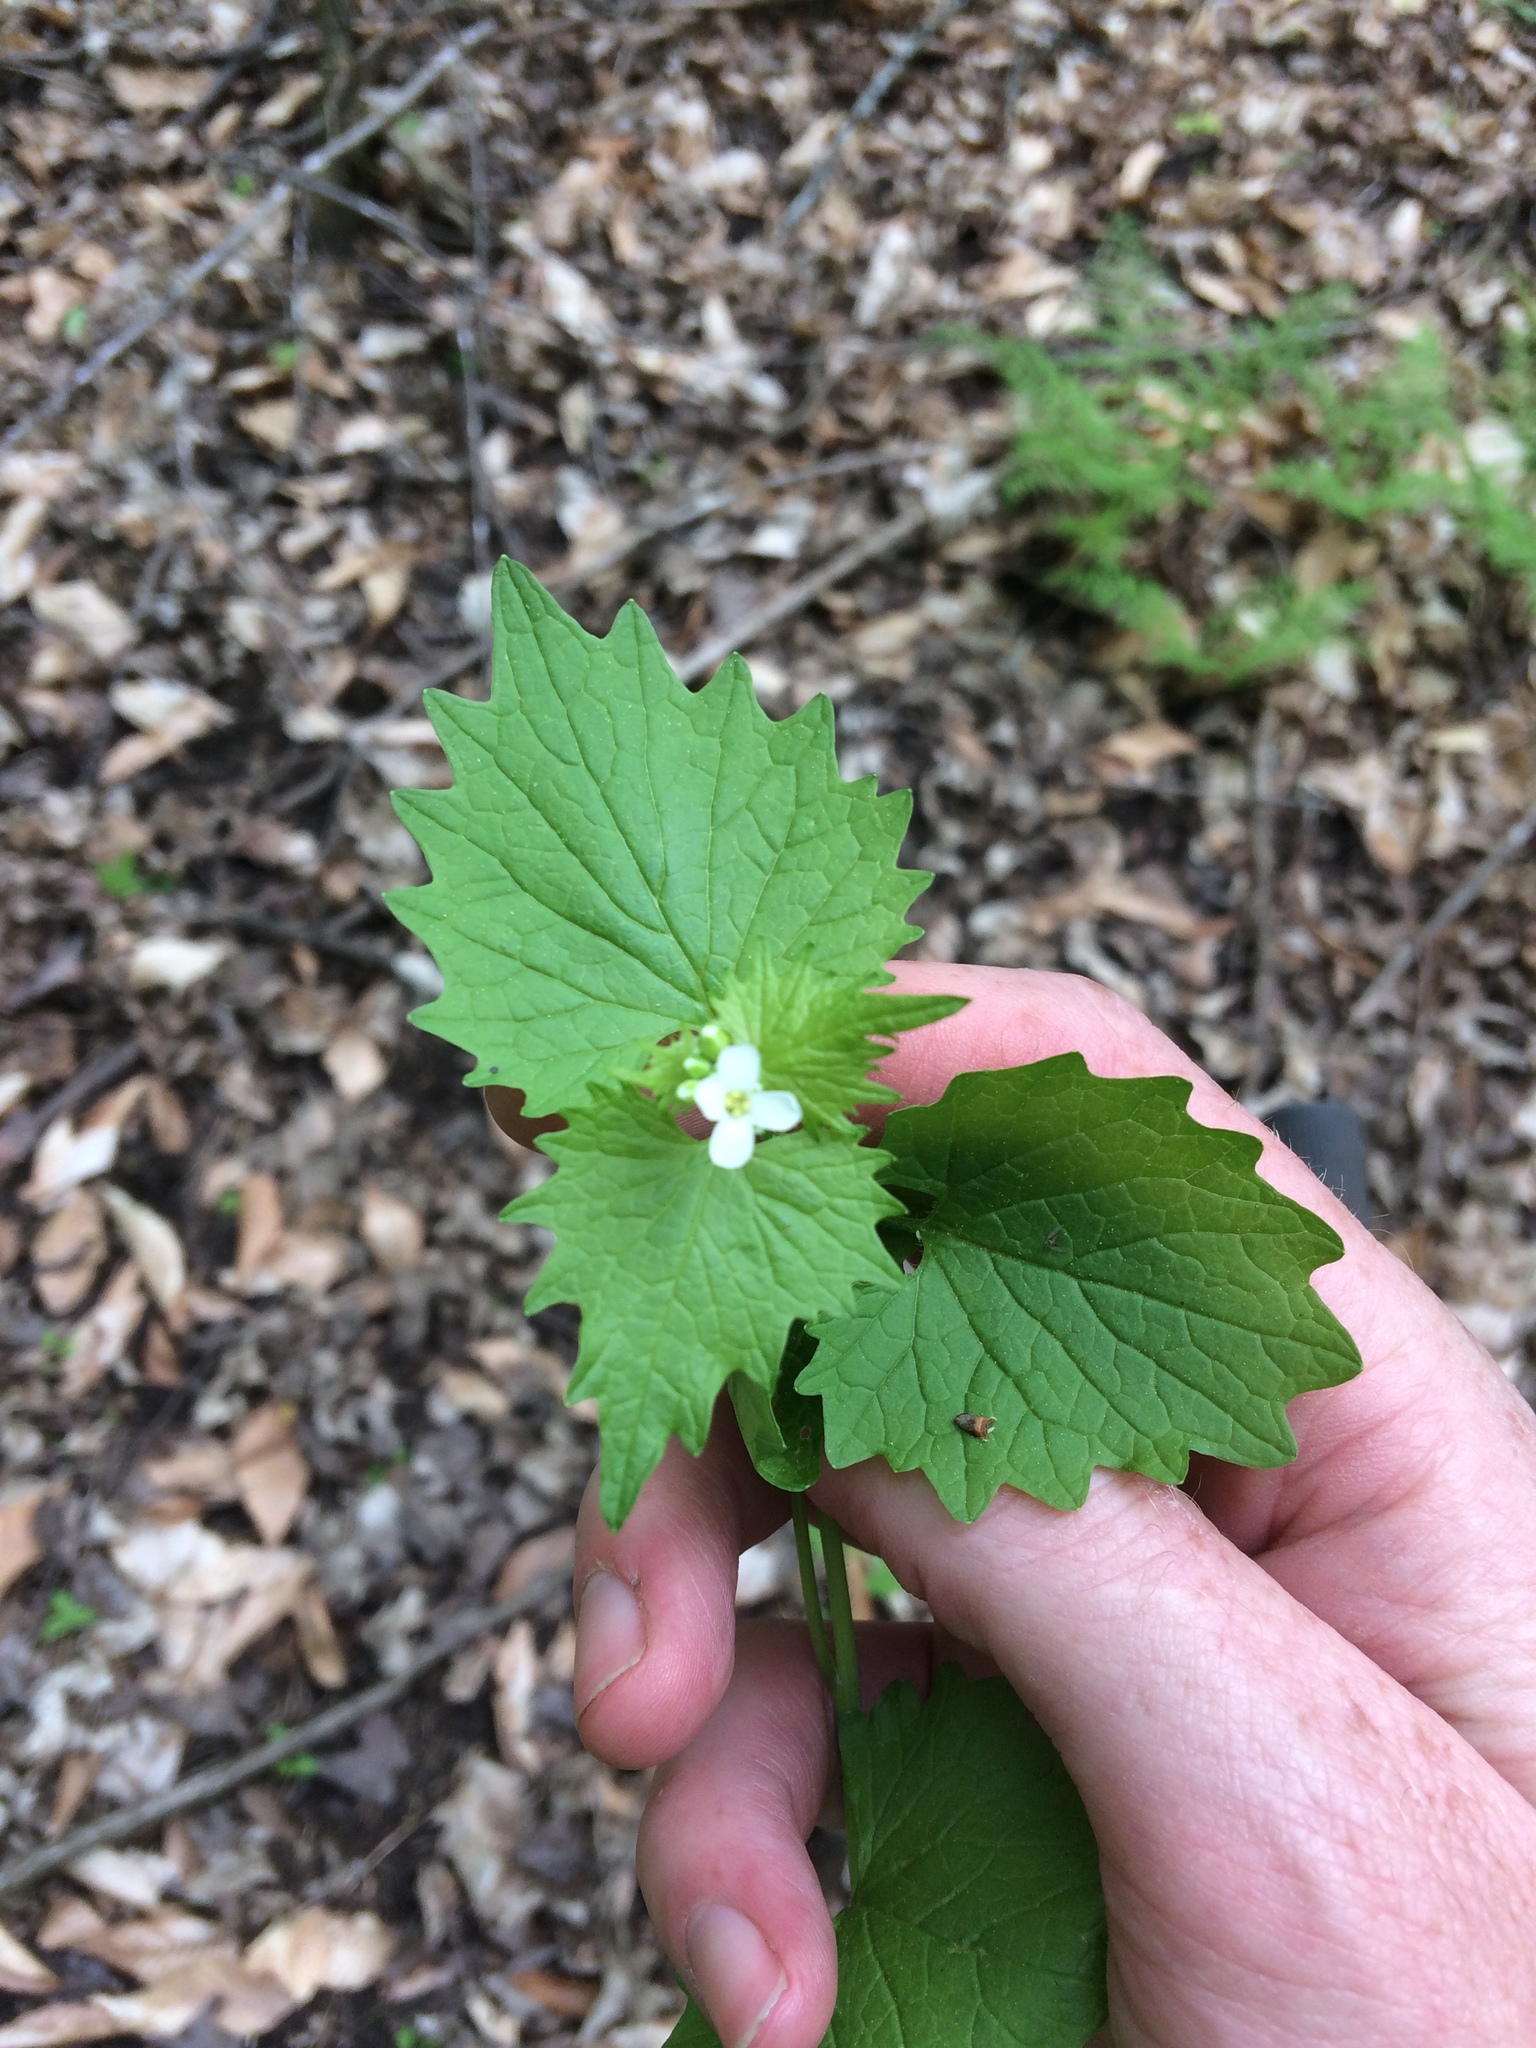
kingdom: Plantae
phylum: Tracheophyta
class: Magnoliopsida
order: Brassicales
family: Brassicaceae
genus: Alliaria
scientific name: Alliaria petiolata
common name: Garlic mustard
